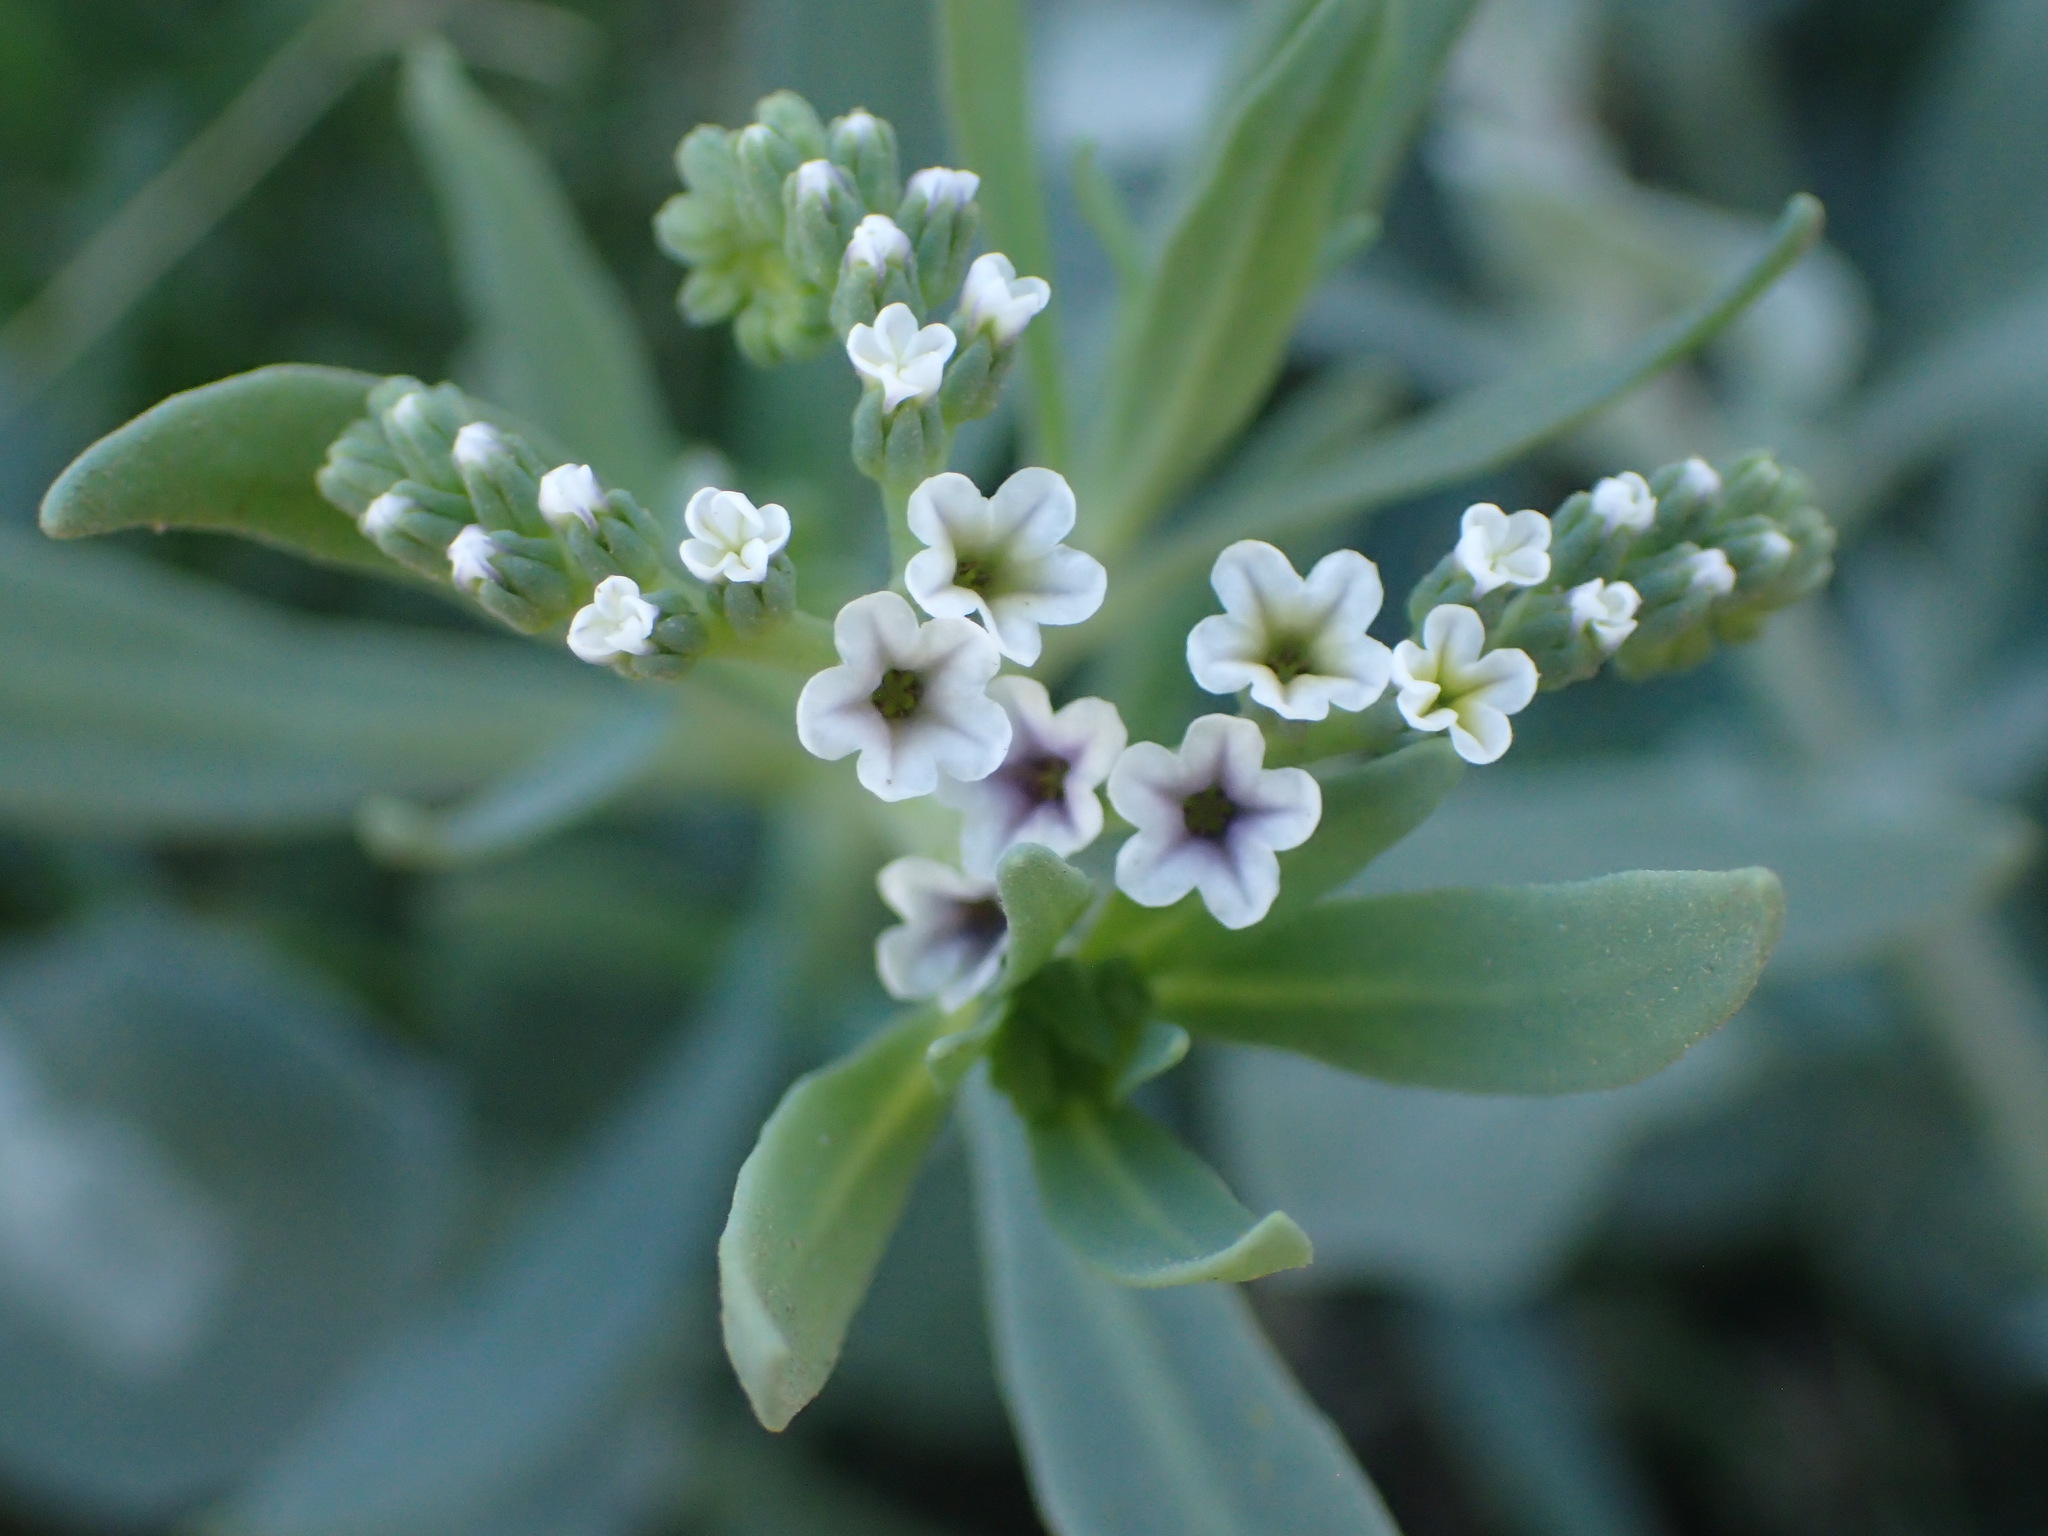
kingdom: Plantae
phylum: Tracheophyta
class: Magnoliopsida
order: Boraginales
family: Heliotropiaceae
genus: Heliotropium
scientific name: Heliotropium curassavicum
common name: Seaside heliotrope
